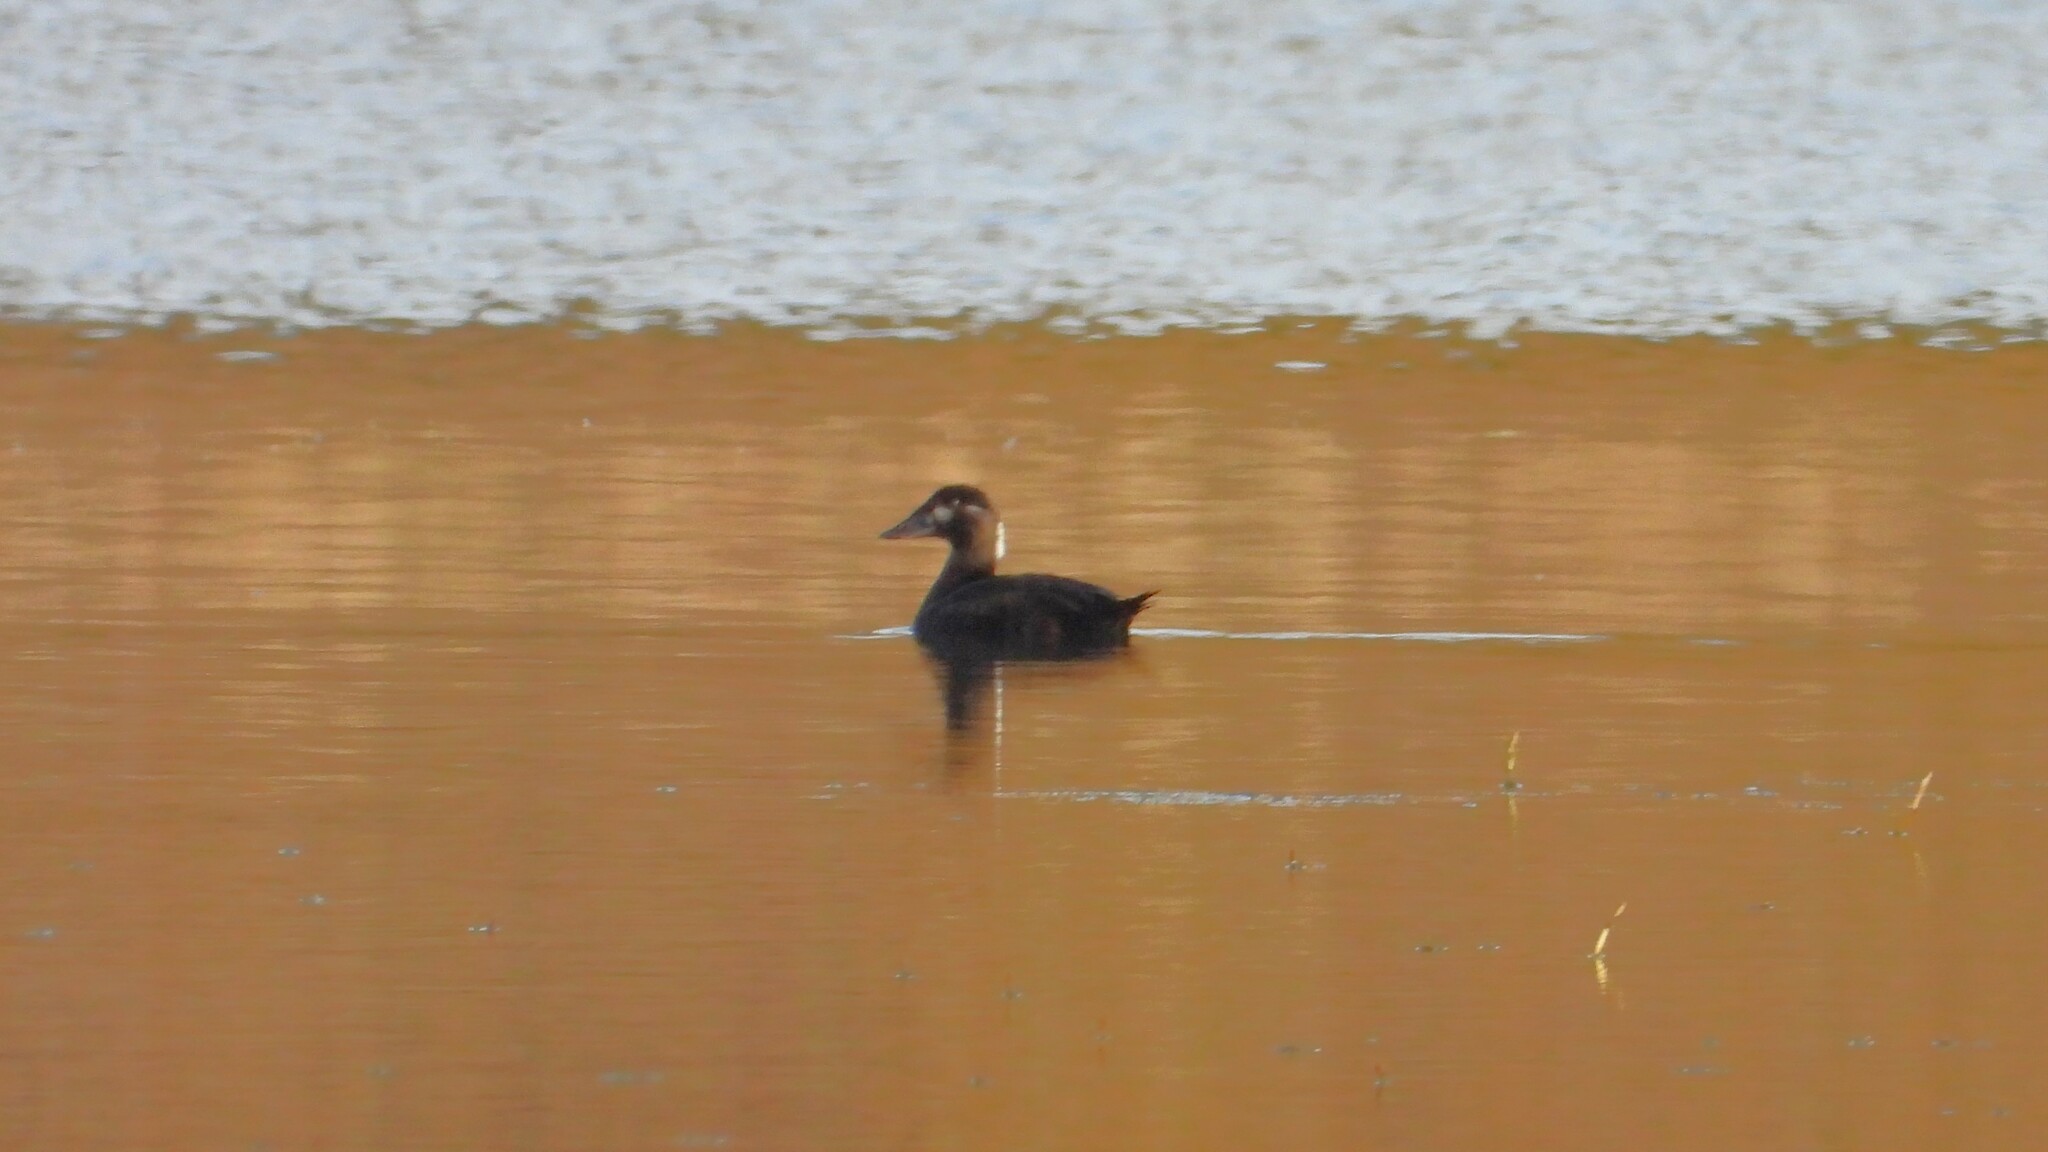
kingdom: Animalia
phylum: Chordata
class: Aves
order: Anseriformes
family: Anatidae
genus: Melanitta
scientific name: Melanitta perspicillata
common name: Surf scoter
